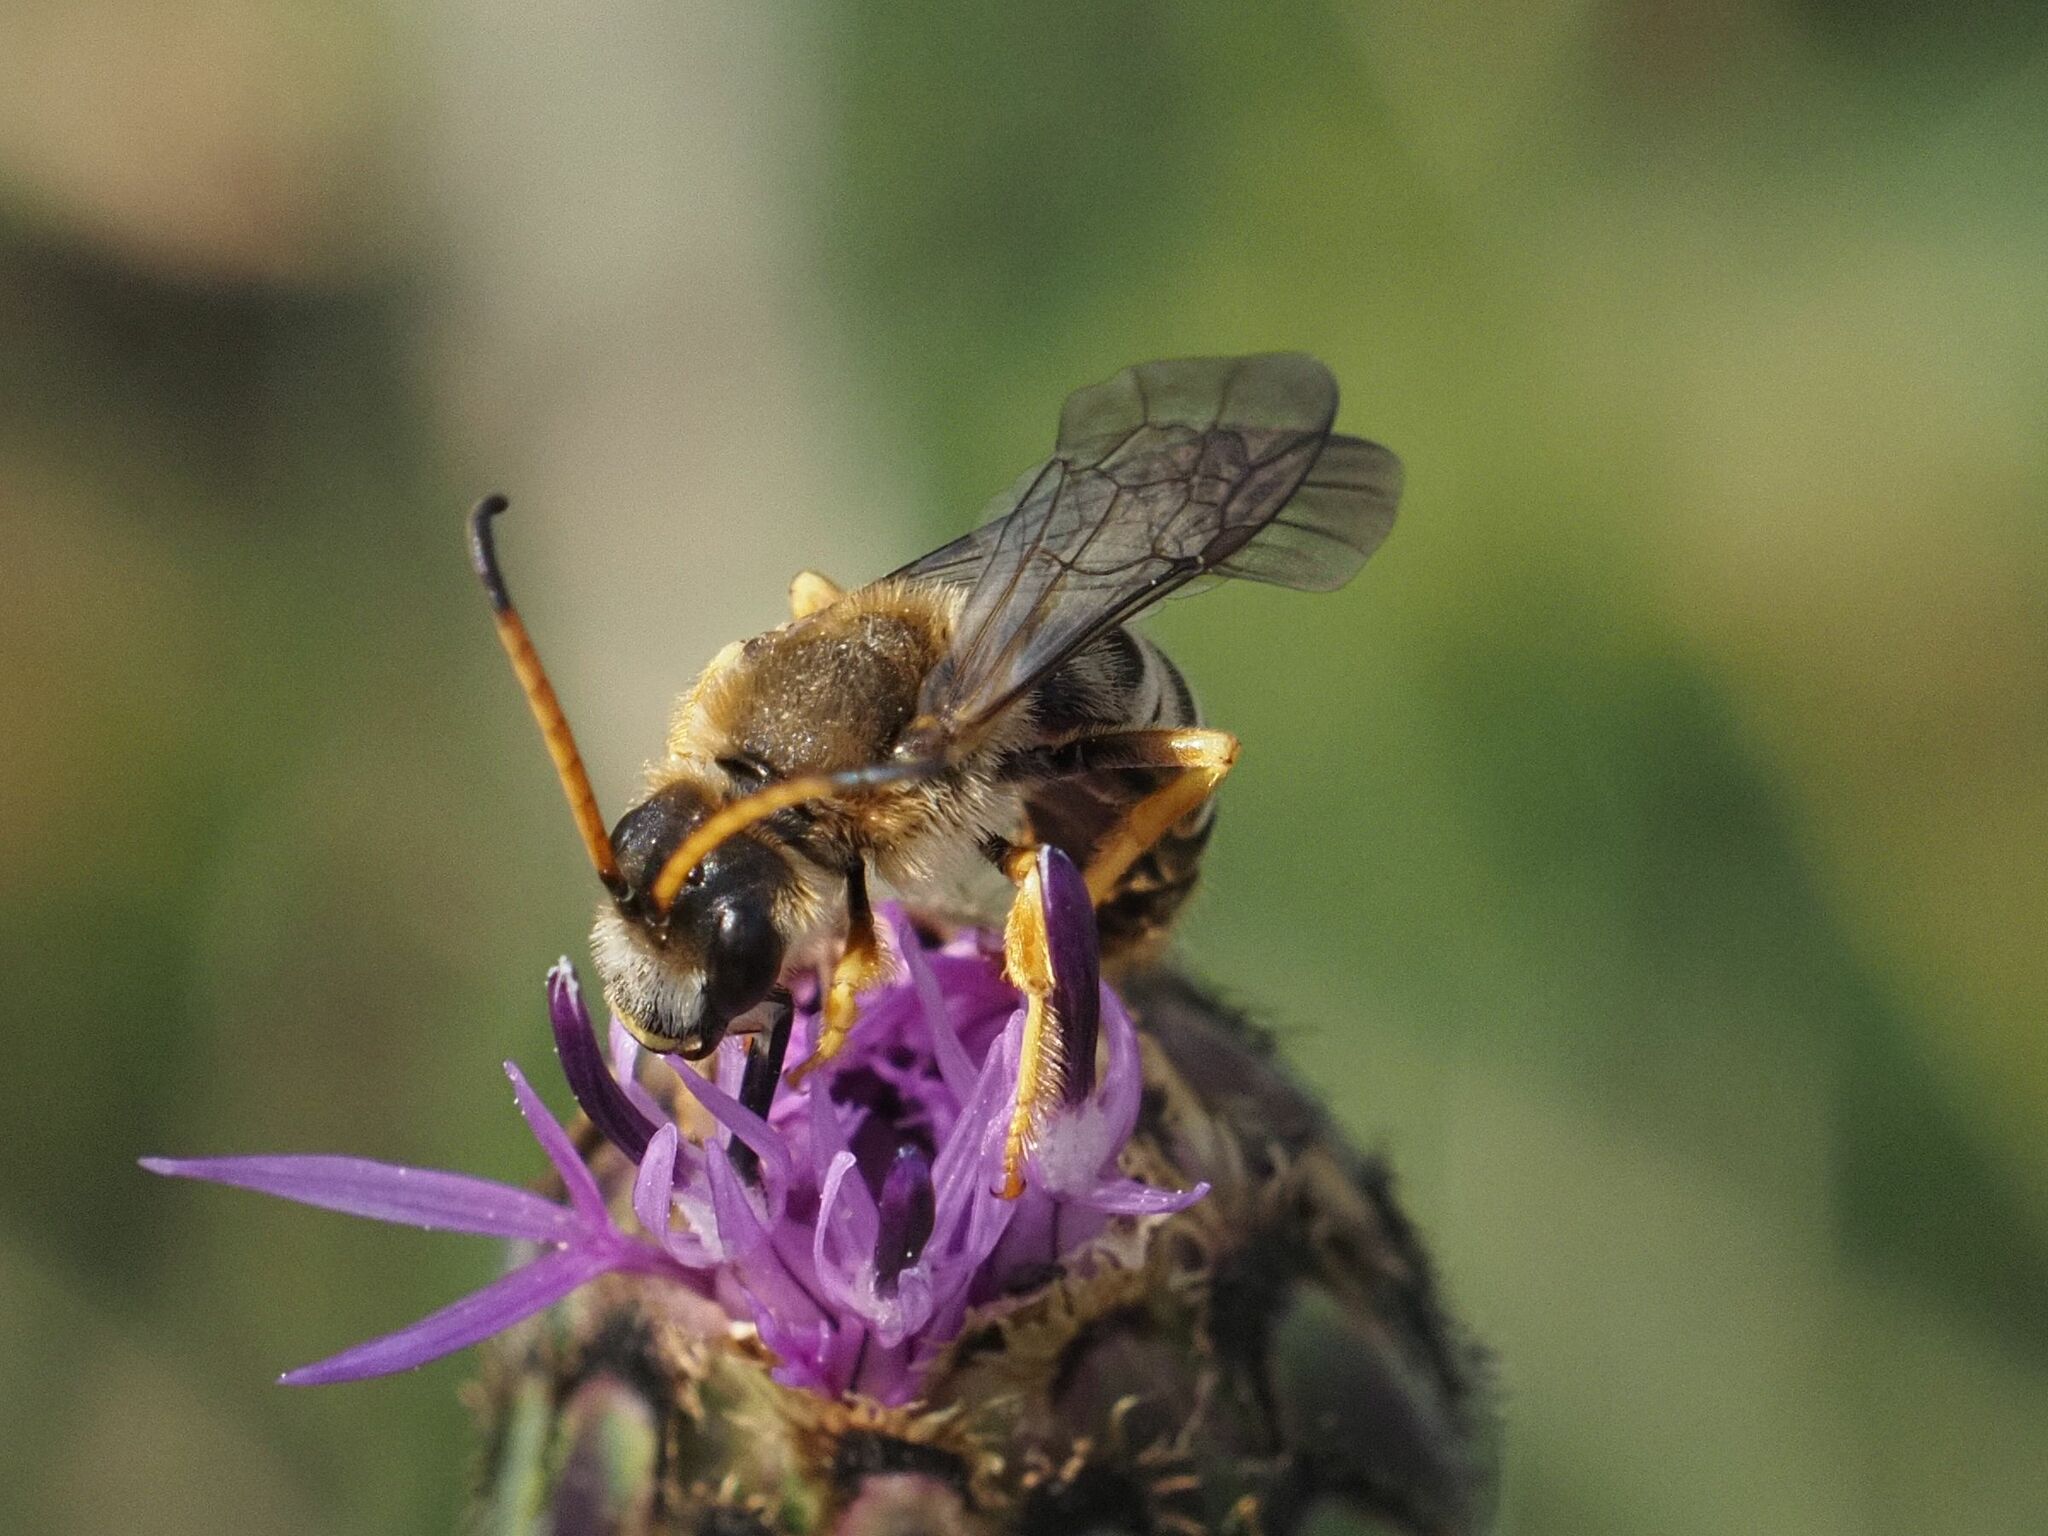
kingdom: Animalia
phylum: Arthropoda
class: Insecta
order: Hymenoptera
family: Halictidae
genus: Halictus
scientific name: Halictus sexcinctus
